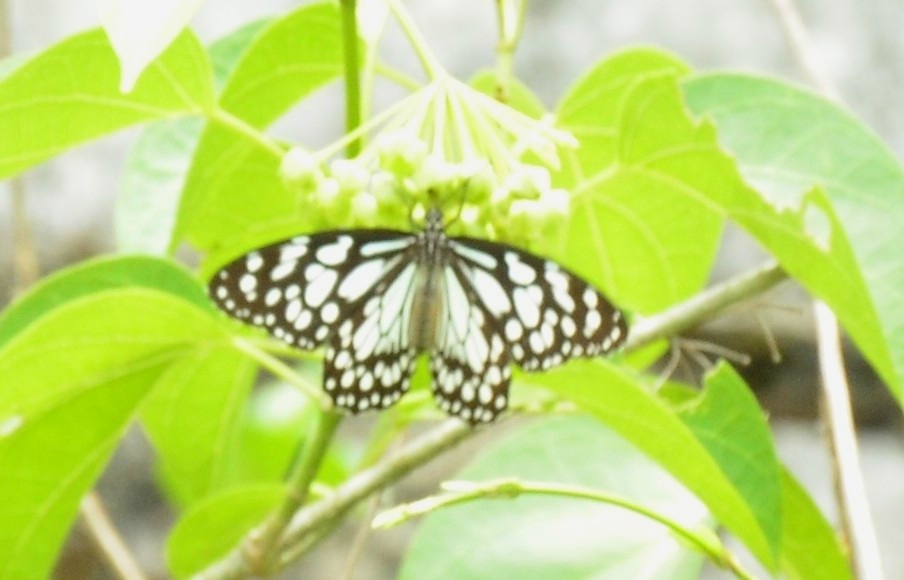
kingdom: Animalia
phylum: Arthropoda
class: Insecta
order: Lepidoptera
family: Nymphalidae
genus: Tirumala
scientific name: Tirumala limniace
